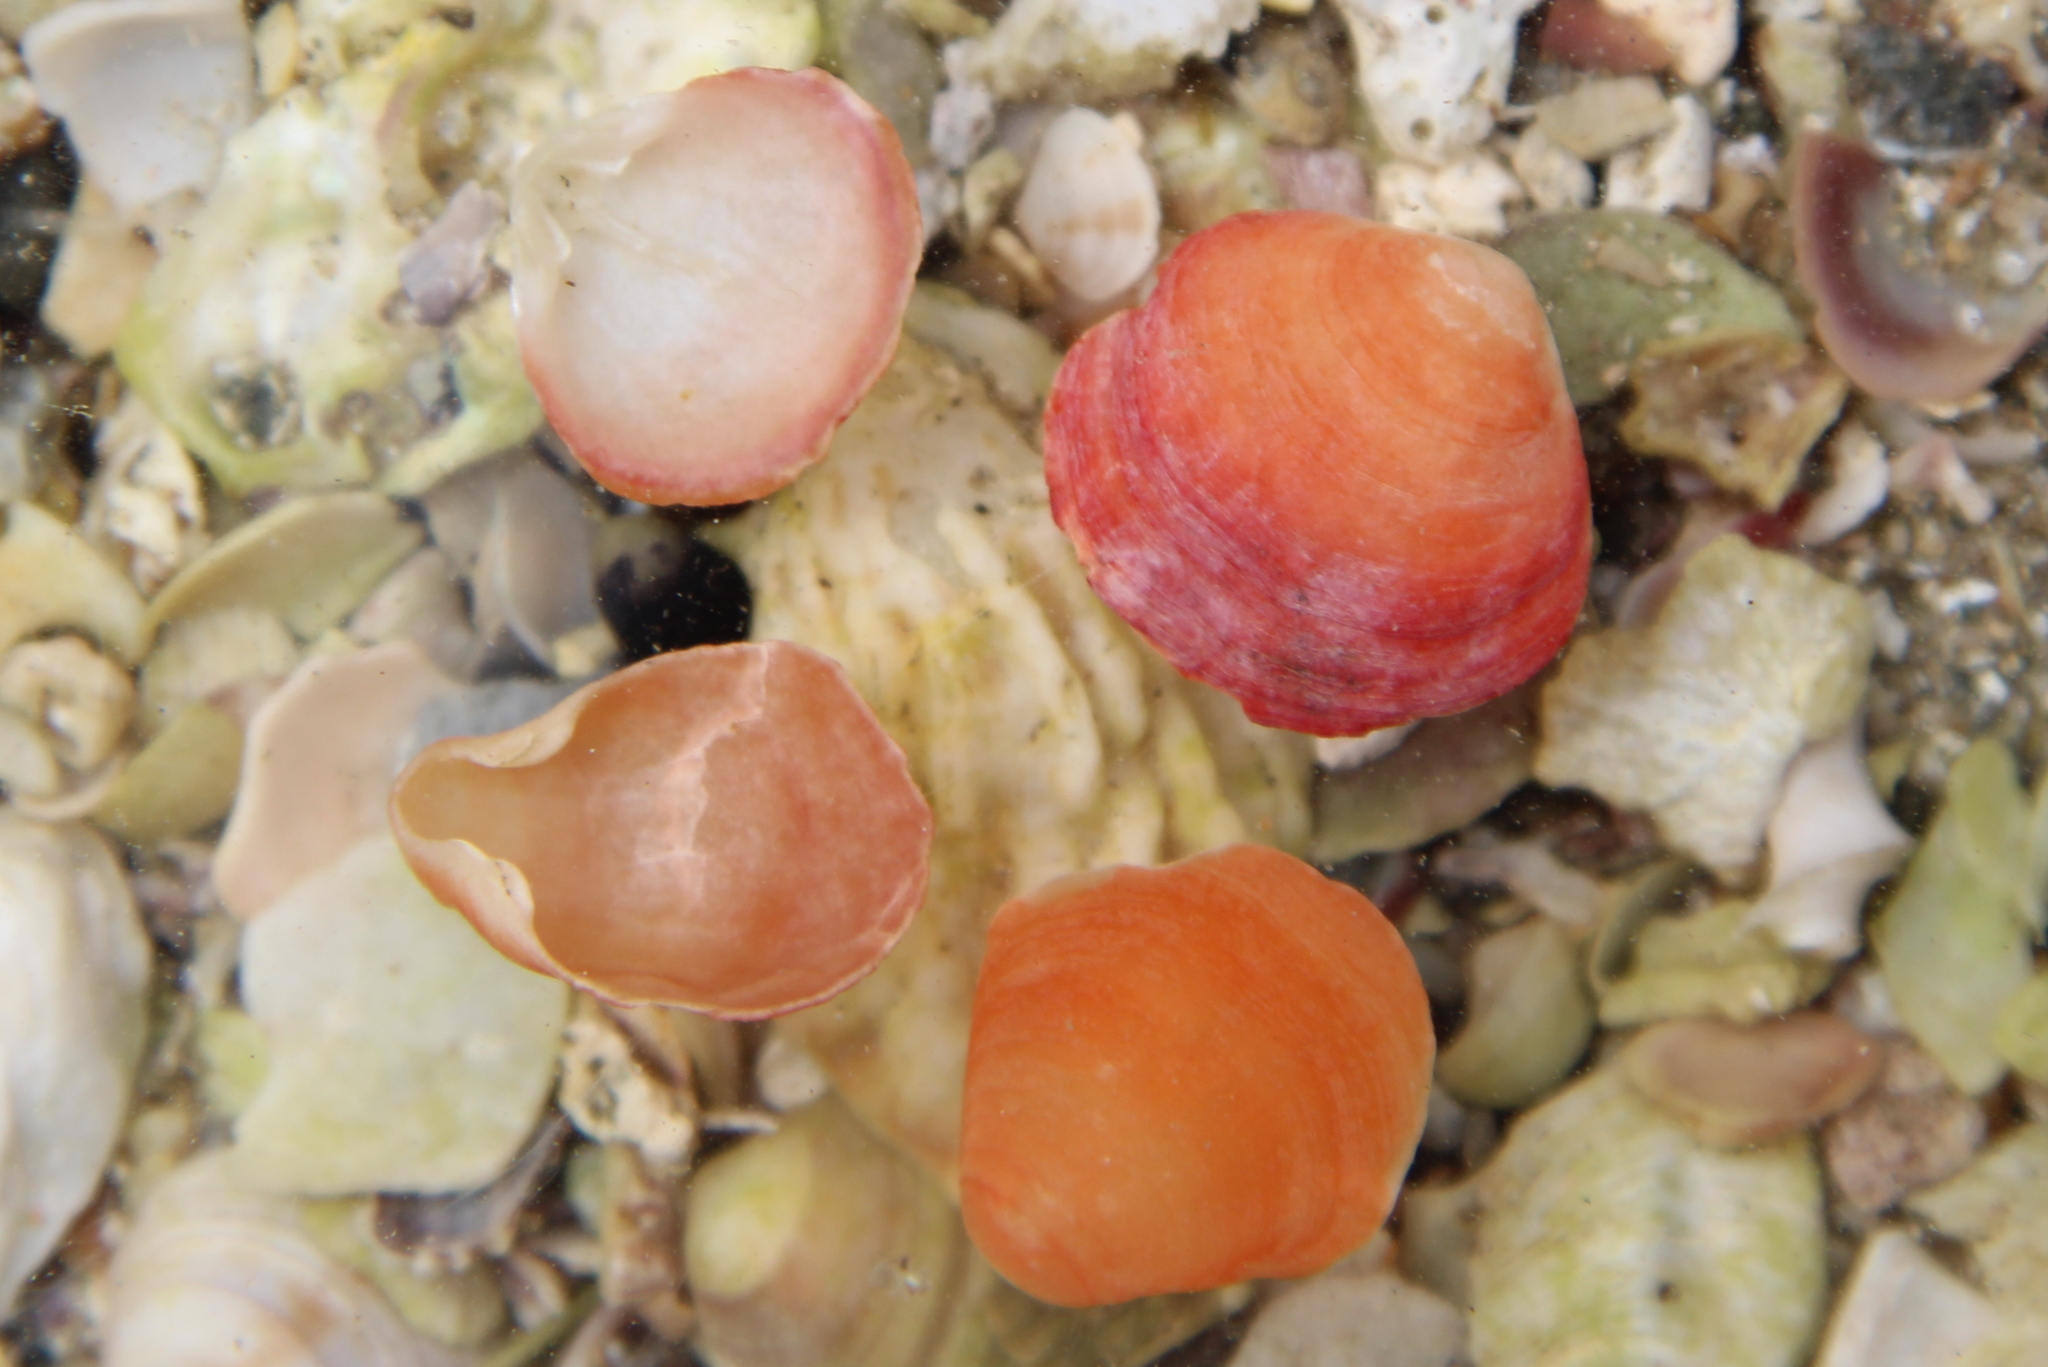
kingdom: Animalia
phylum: Brachiopoda
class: Rhynchonellata
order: Terebratulida
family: Terebratellidae
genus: Calloria
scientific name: Calloria inconspicua
